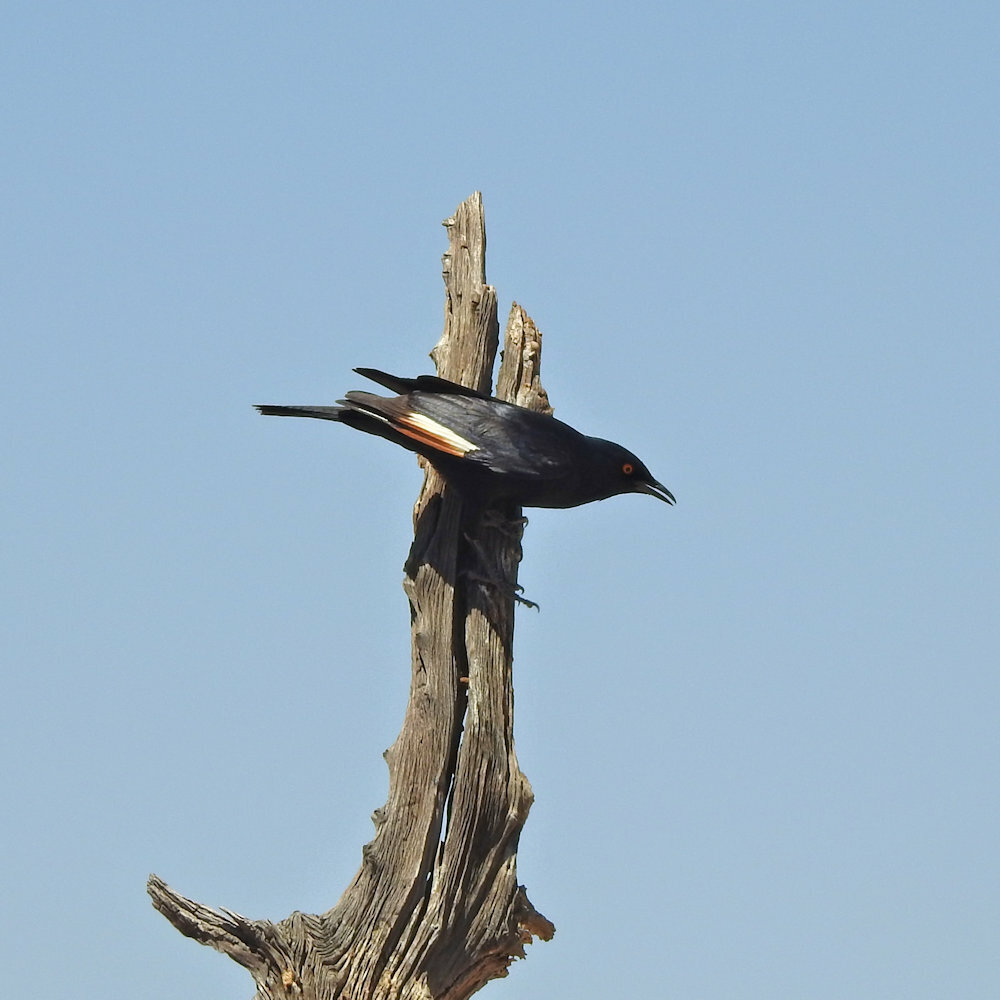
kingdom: Animalia
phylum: Chordata
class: Aves
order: Passeriformes
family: Sturnidae
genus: Onychognathus
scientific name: Onychognathus nabouroup
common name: Pale-winged starling
